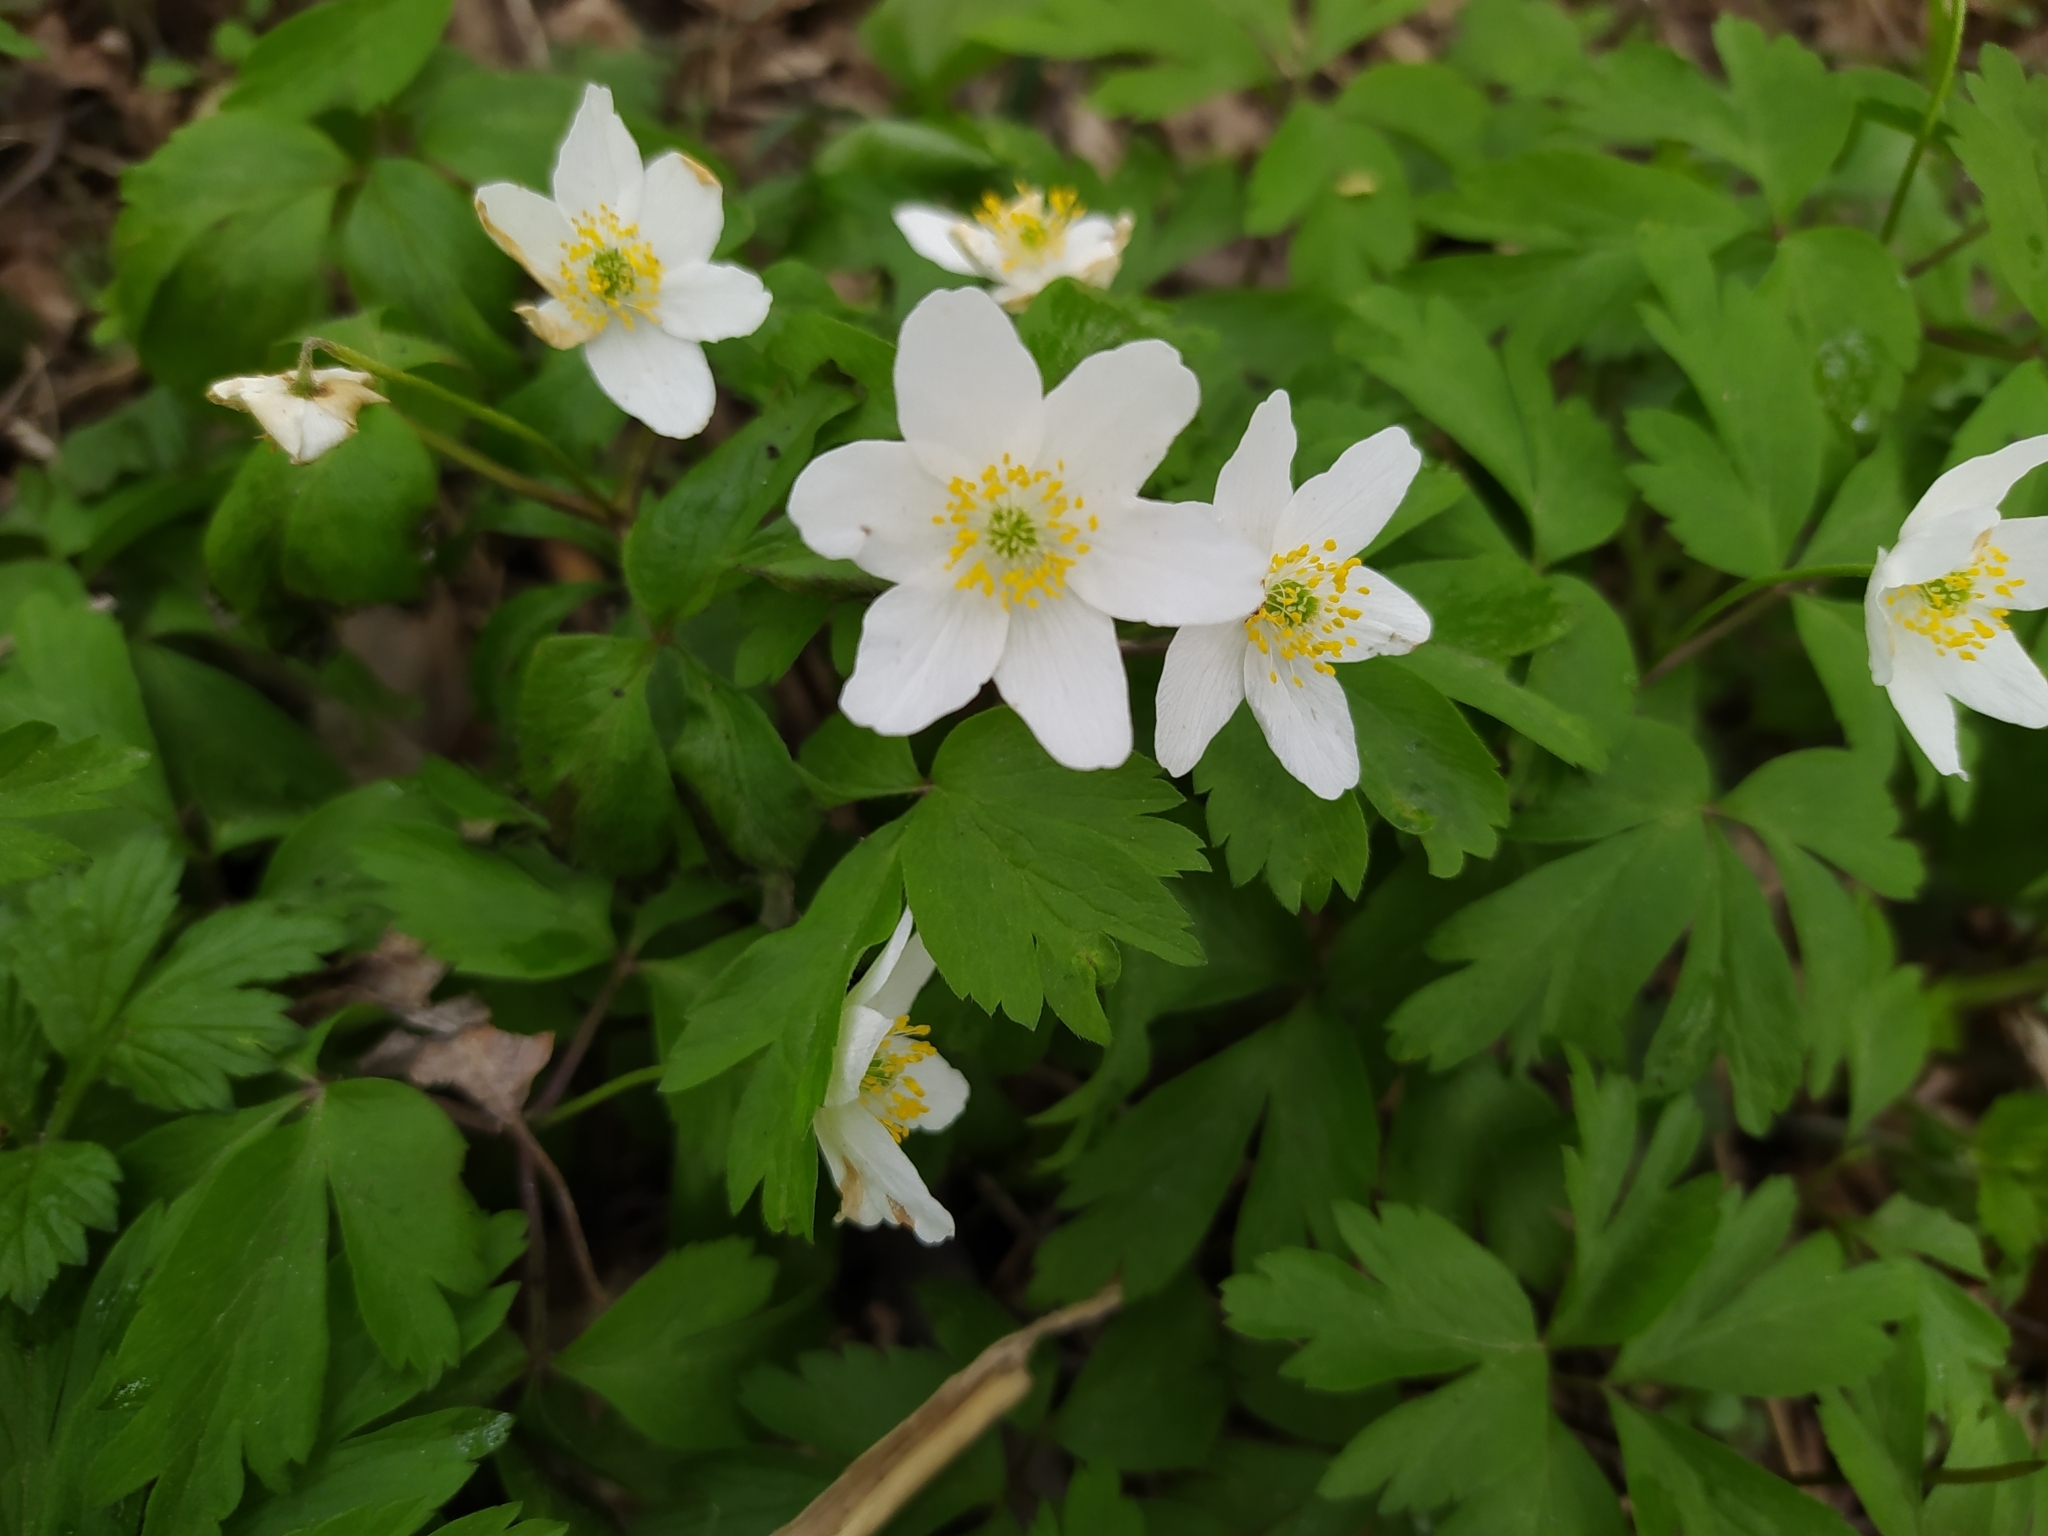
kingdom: Plantae
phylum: Tracheophyta
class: Magnoliopsida
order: Ranunculales
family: Ranunculaceae
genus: Anemone
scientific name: Anemone nemorosa
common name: Wood anemone
